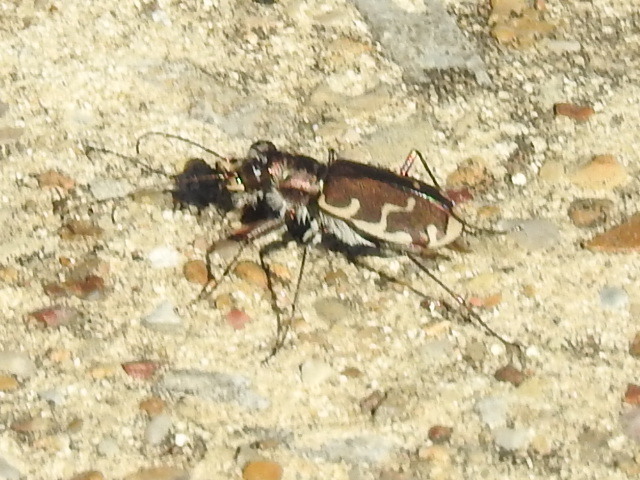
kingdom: Animalia
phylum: Arthropoda
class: Insecta
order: Coleoptera
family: Carabidae
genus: Cicindela
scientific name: Cicindela repanda
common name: Bronzed tiger beetle
